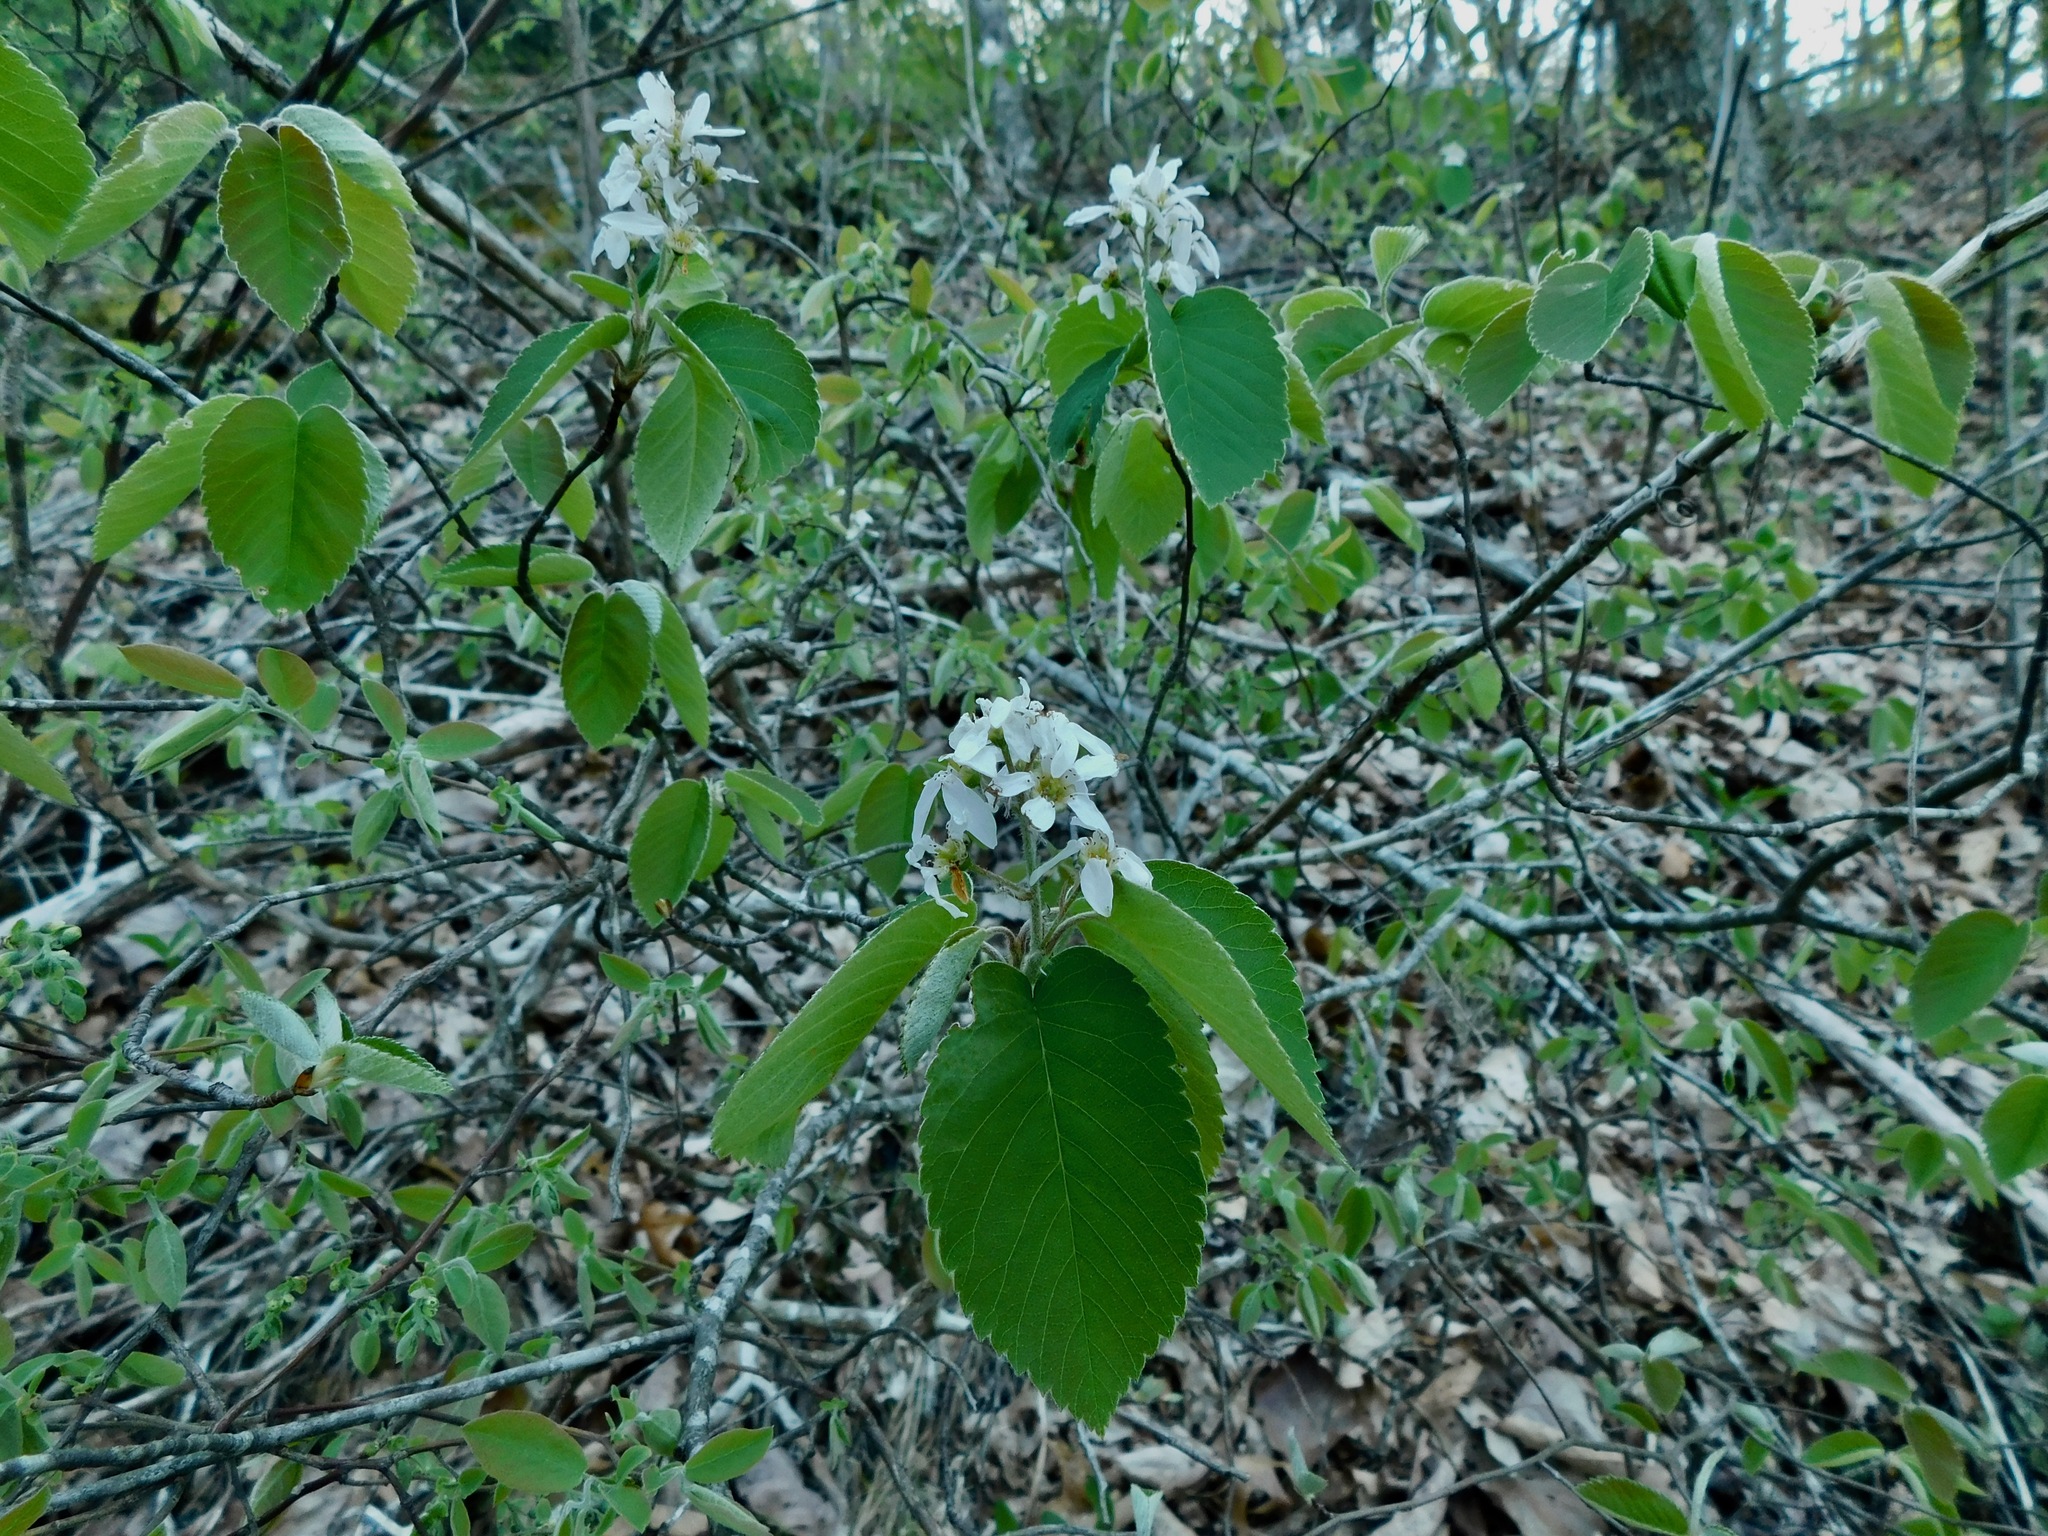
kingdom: Plantae
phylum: Tracheophyta
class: Magnoliopsida
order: Rosales
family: Rosaceae
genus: Amelanchier
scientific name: Amelanchier arborea
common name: Downy serviceberry
